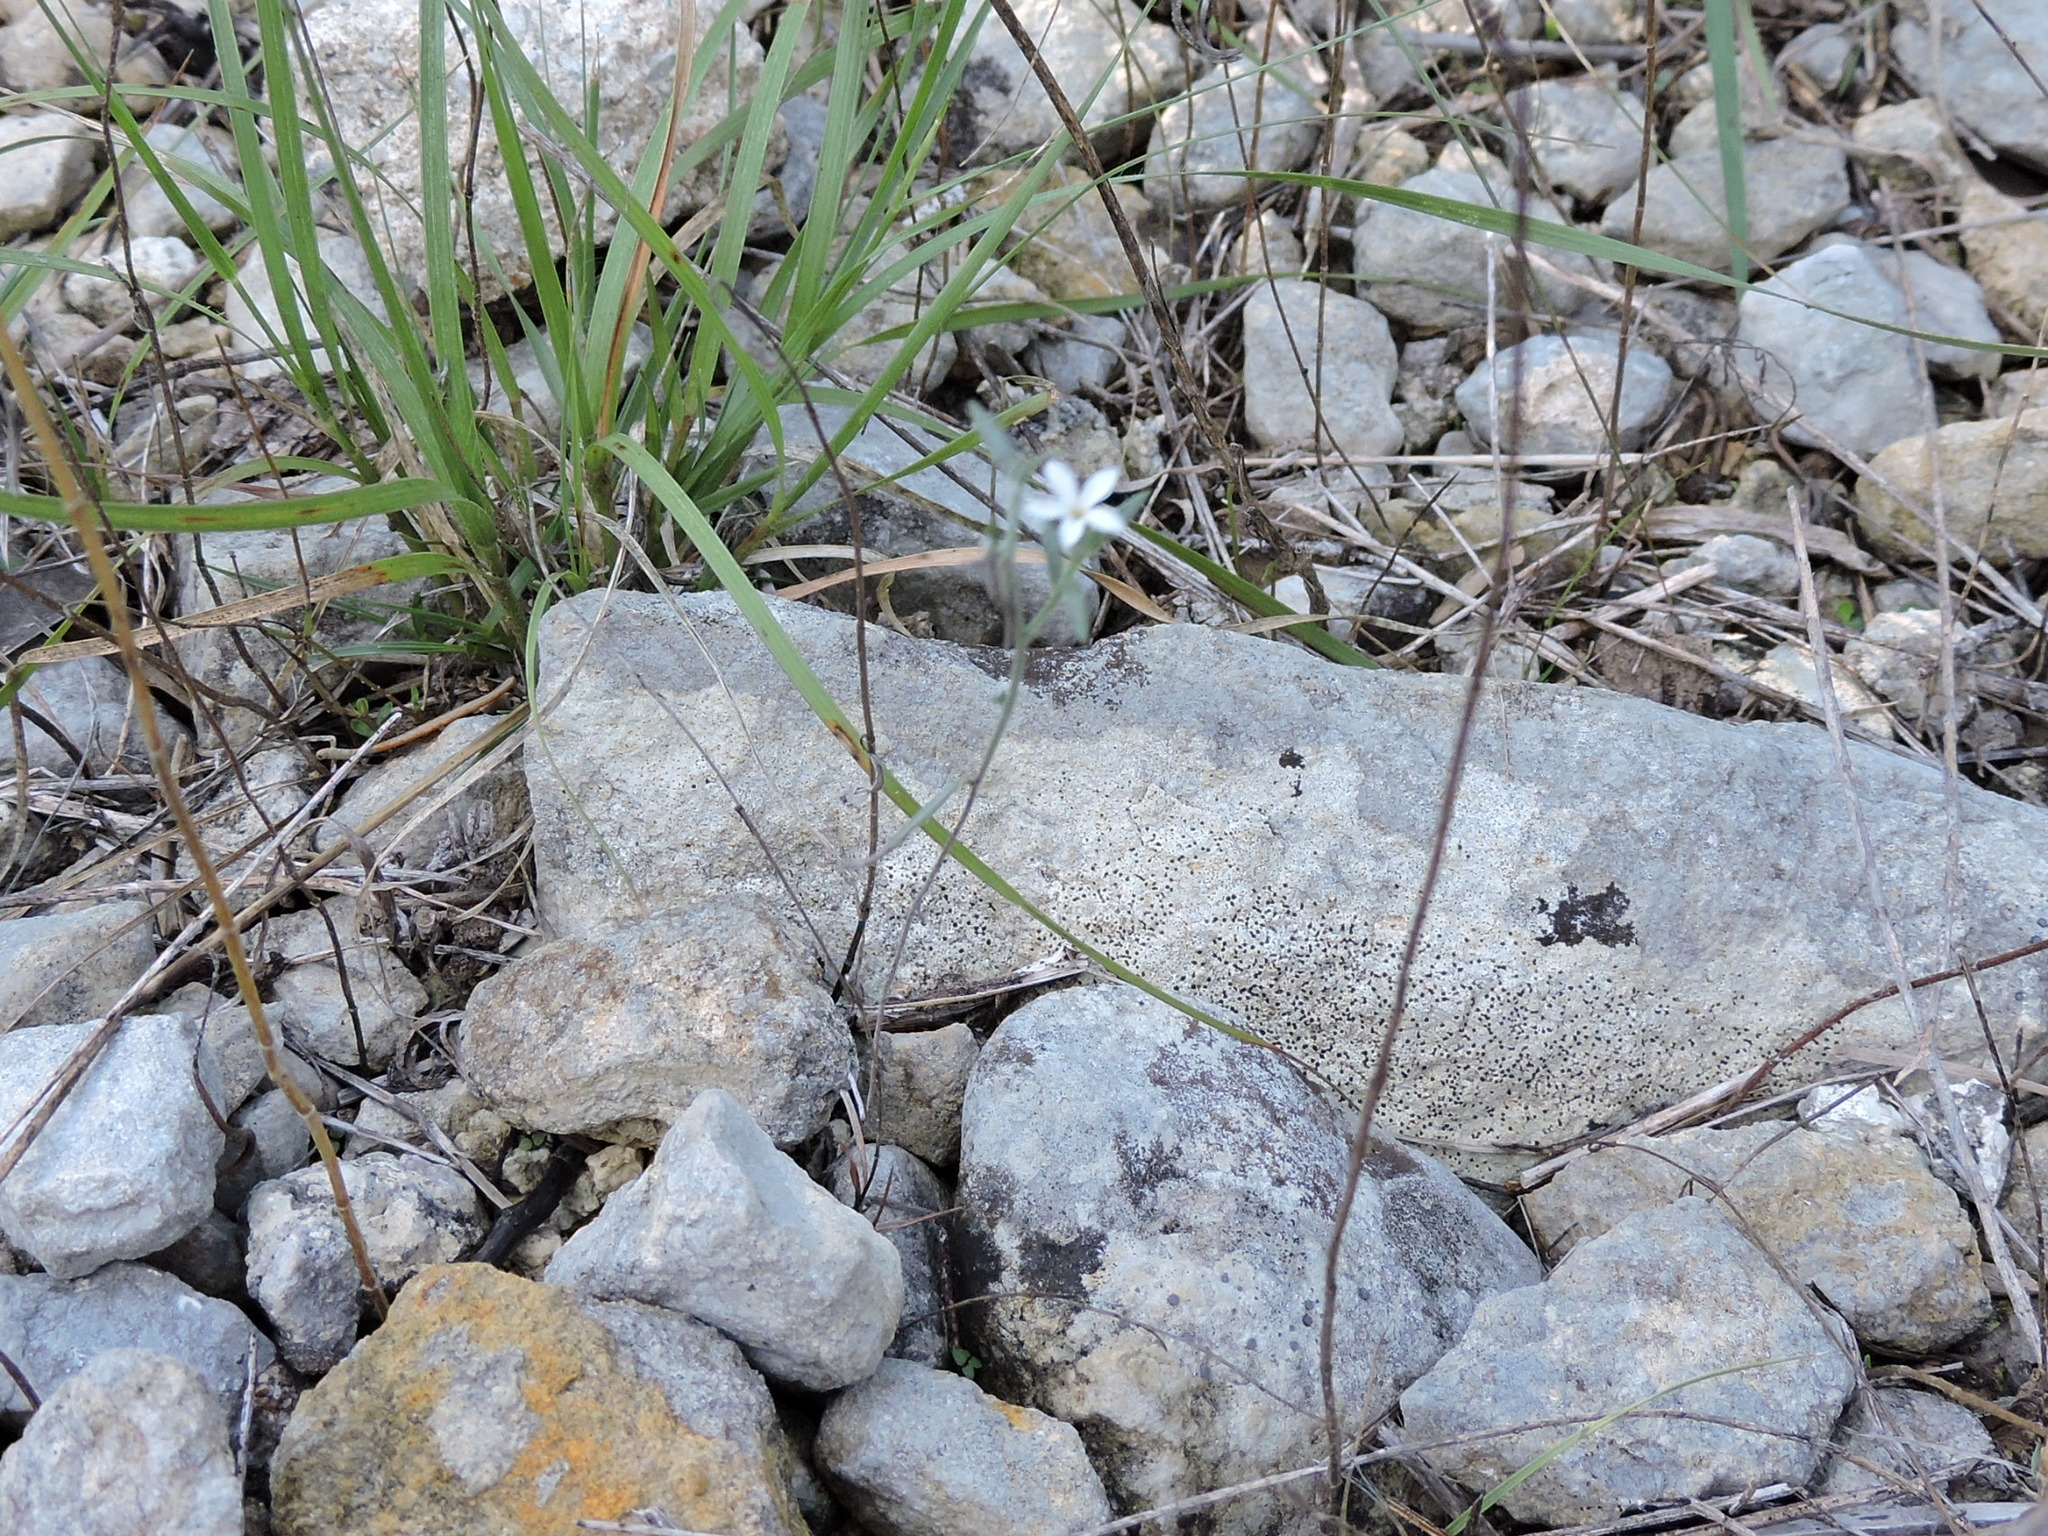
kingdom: Plantae
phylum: Tracheophyta
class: Magnoliopsida
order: Boraginales
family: Heliotropiaceae
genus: Euploca
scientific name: Euploca tenella
